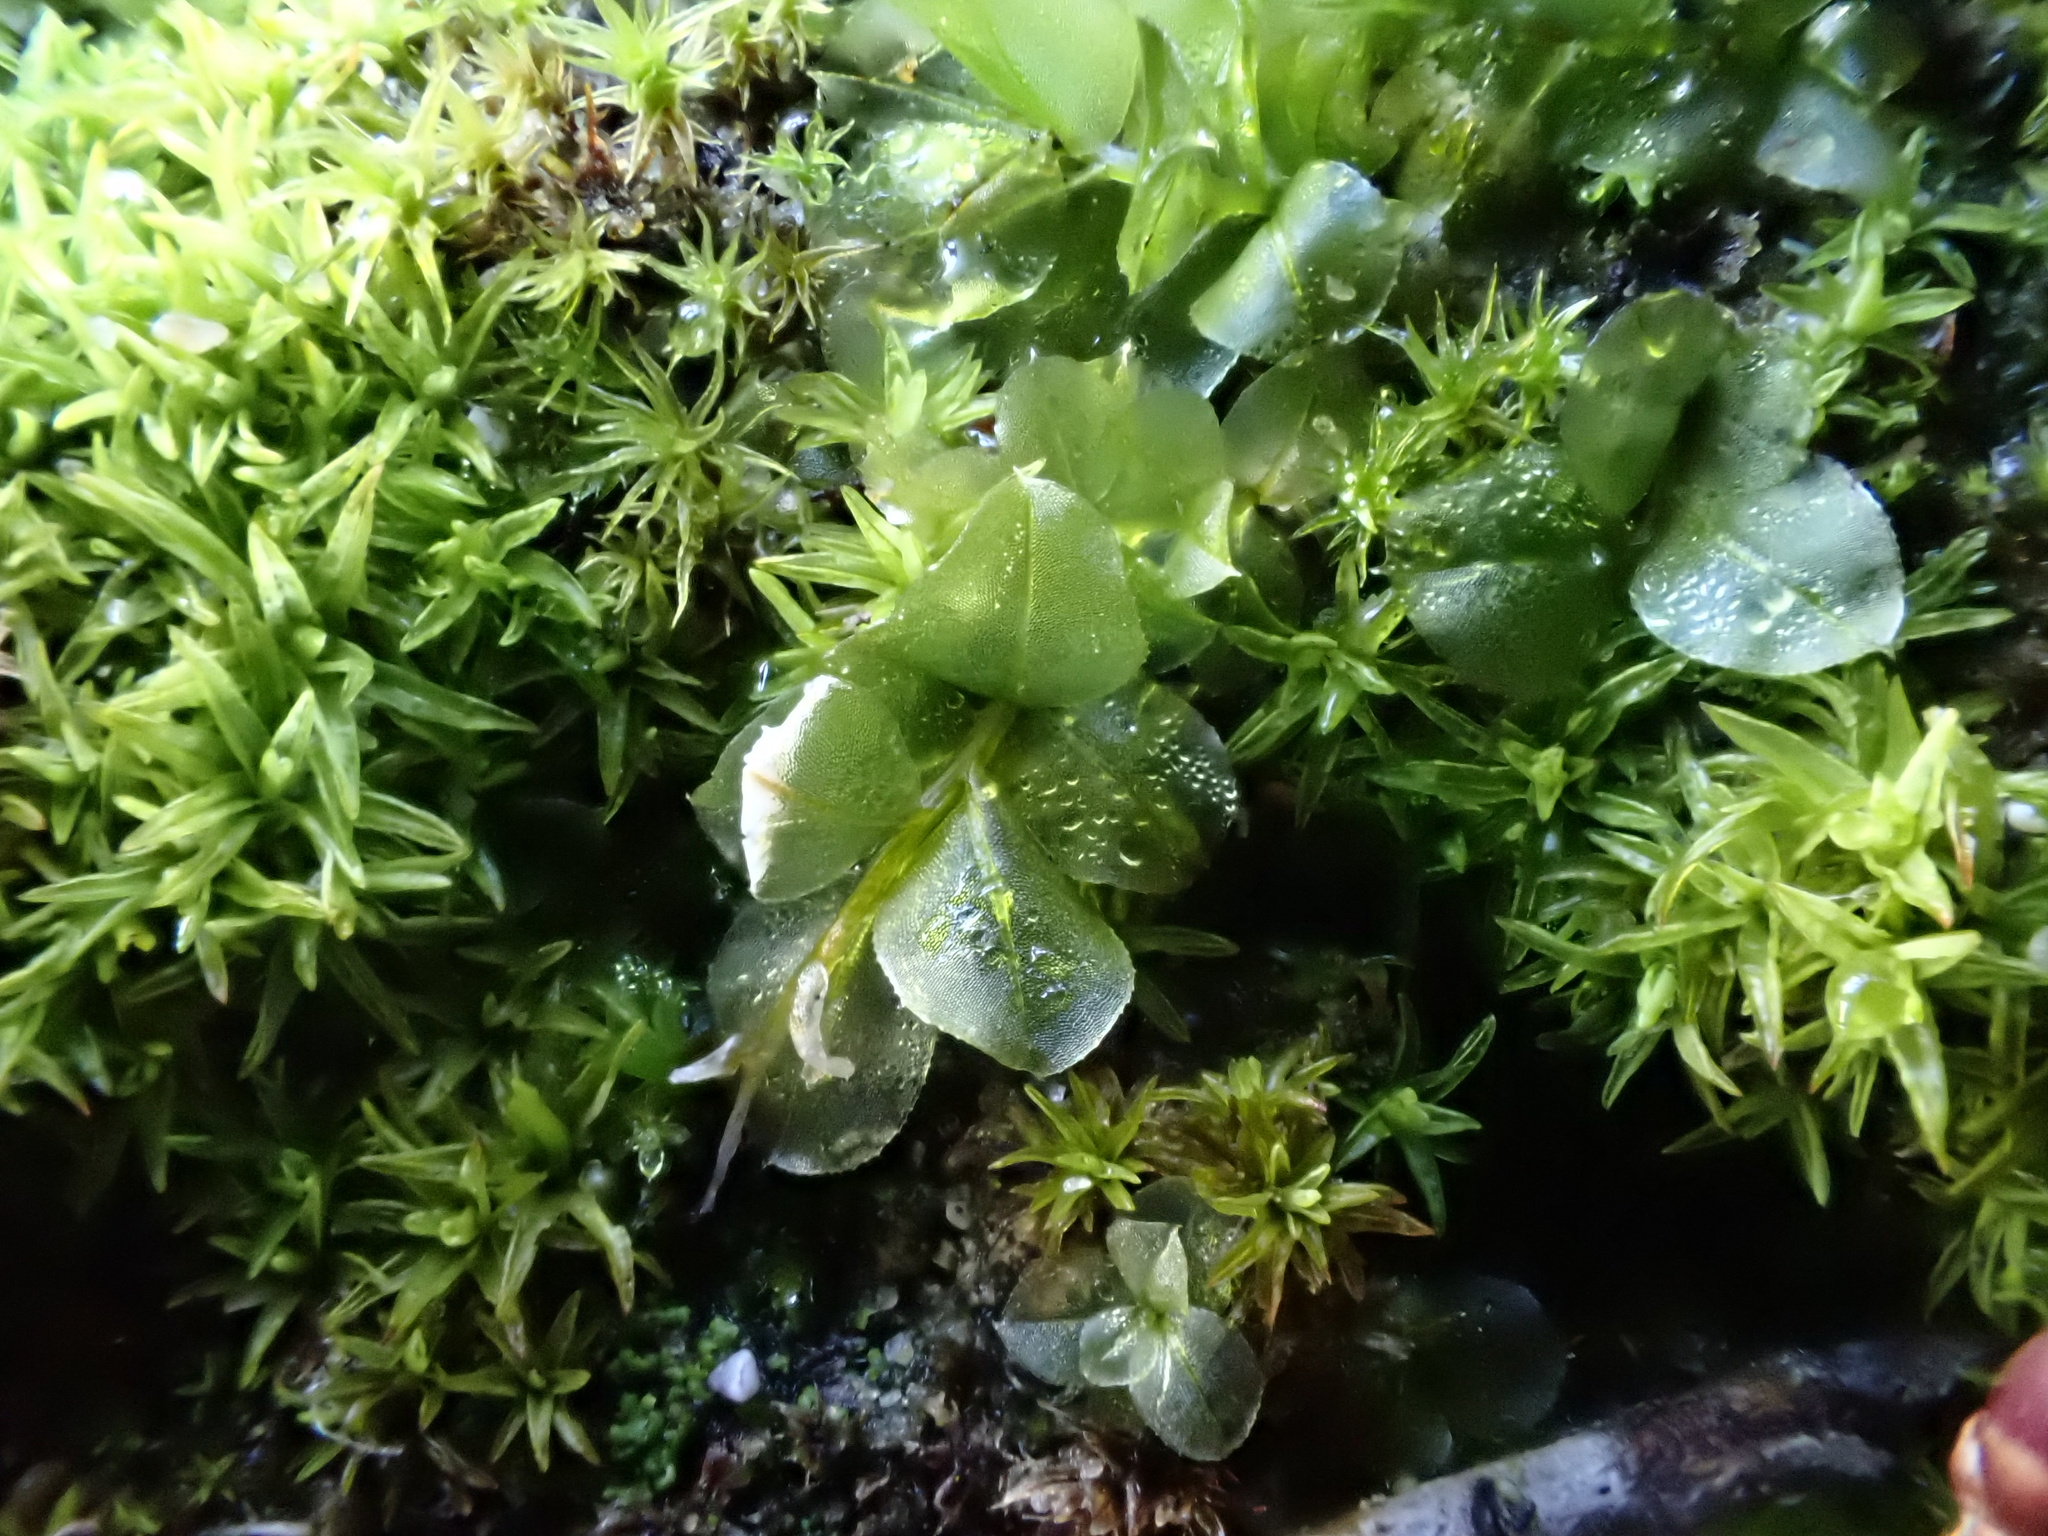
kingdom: Plantae
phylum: Bryophyta
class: Bryopsida
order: Bryales
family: Mniaceae
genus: Plagiomnium
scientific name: Plagiomnium affine
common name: Many-fruited thyme-moss
